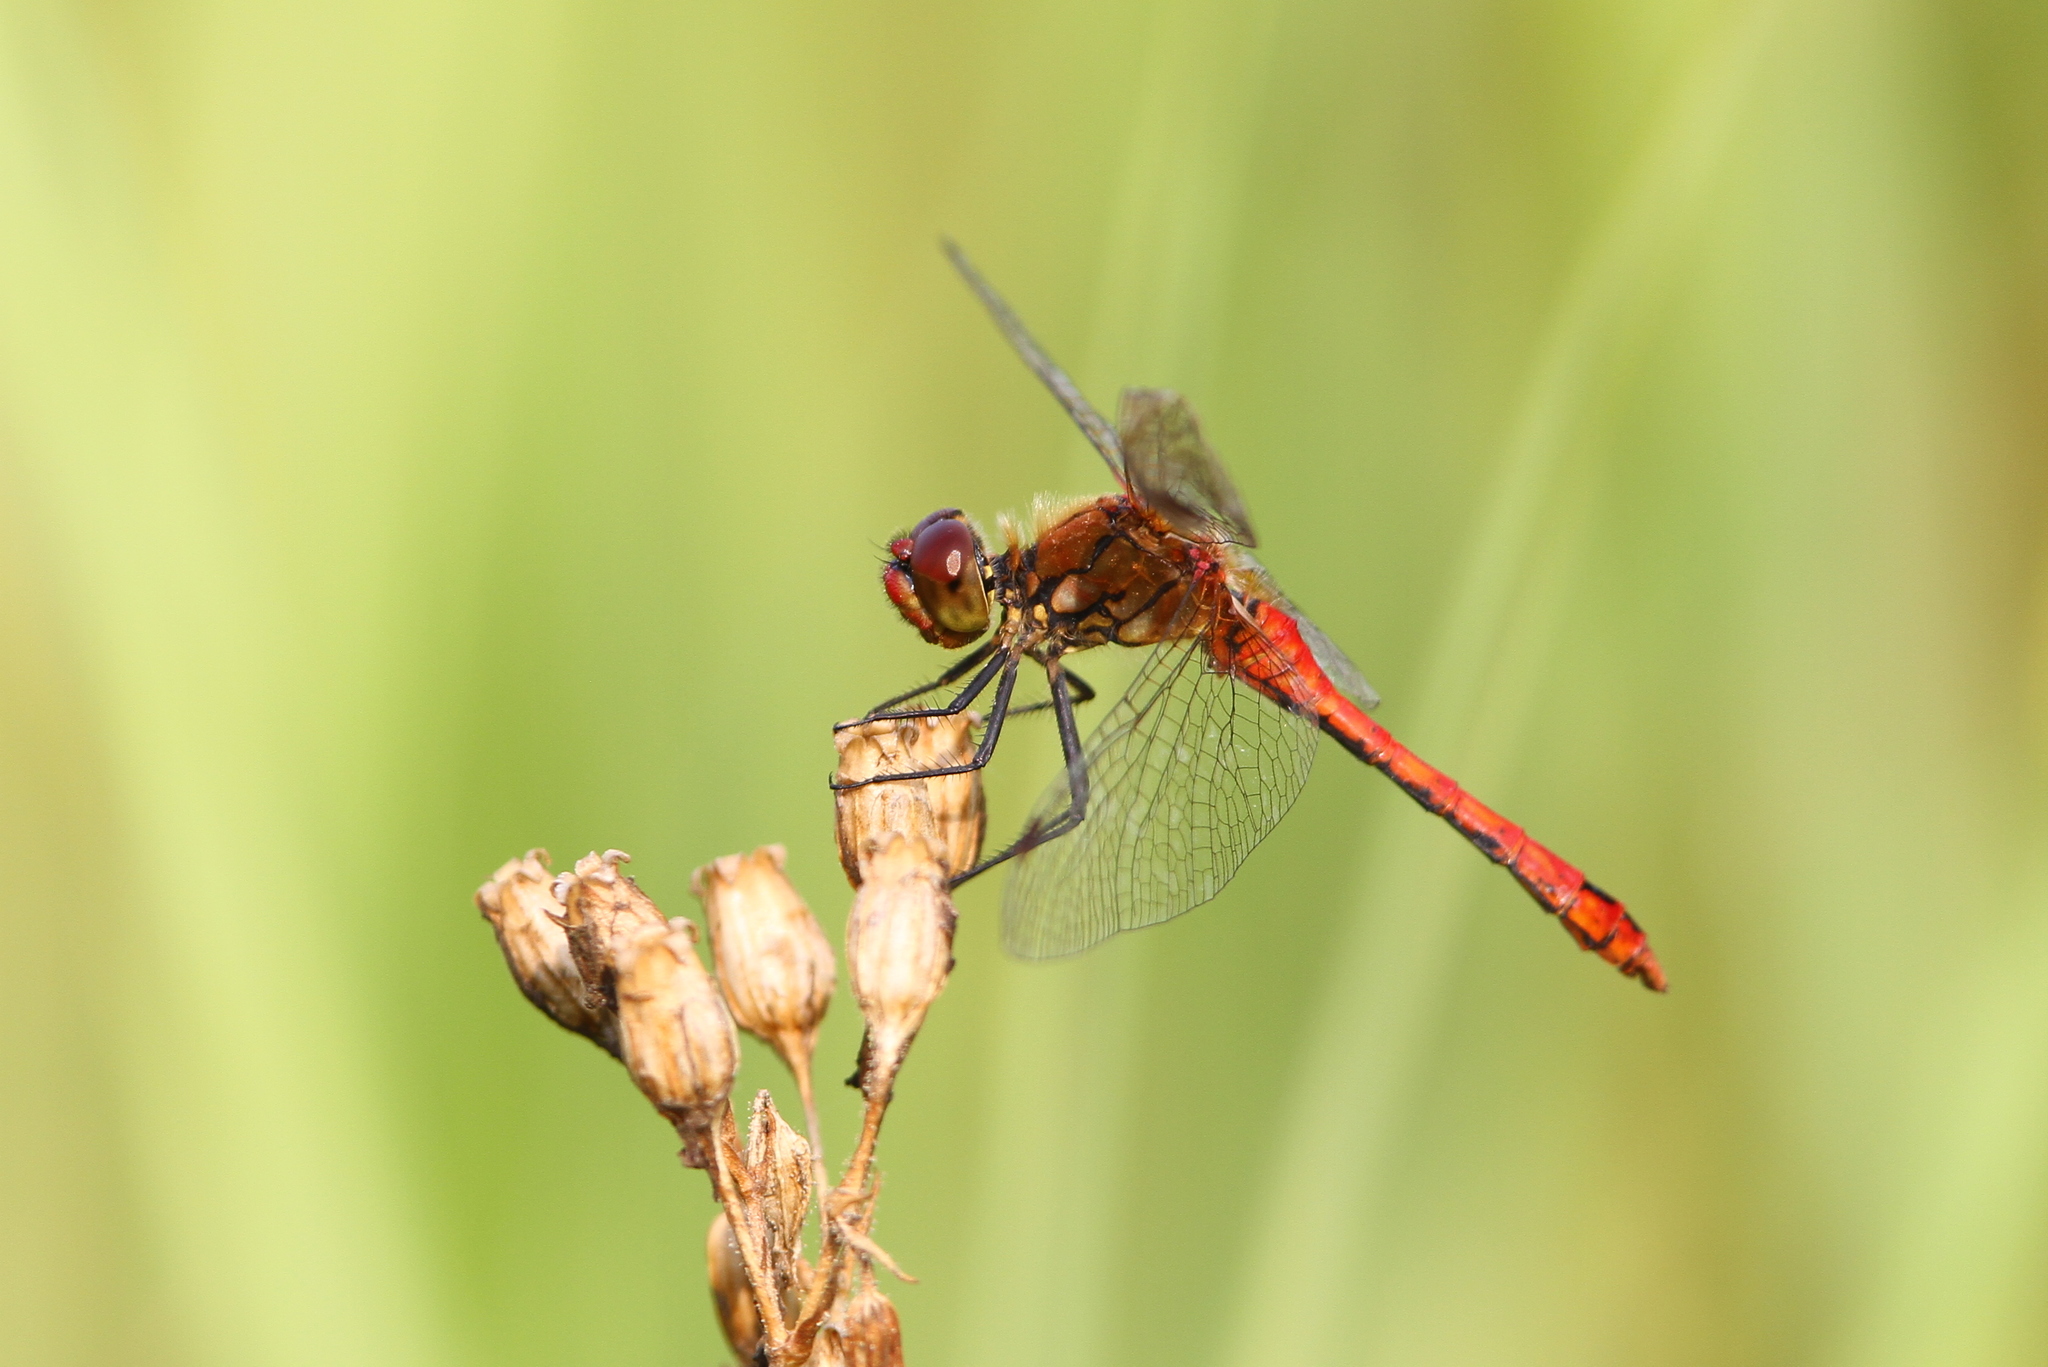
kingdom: Animalia
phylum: Arthropoda
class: Insecta
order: Odonata
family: Libellulidae
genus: Sympetrum
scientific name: Sympetrum sanguineum
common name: Ruddy darter
